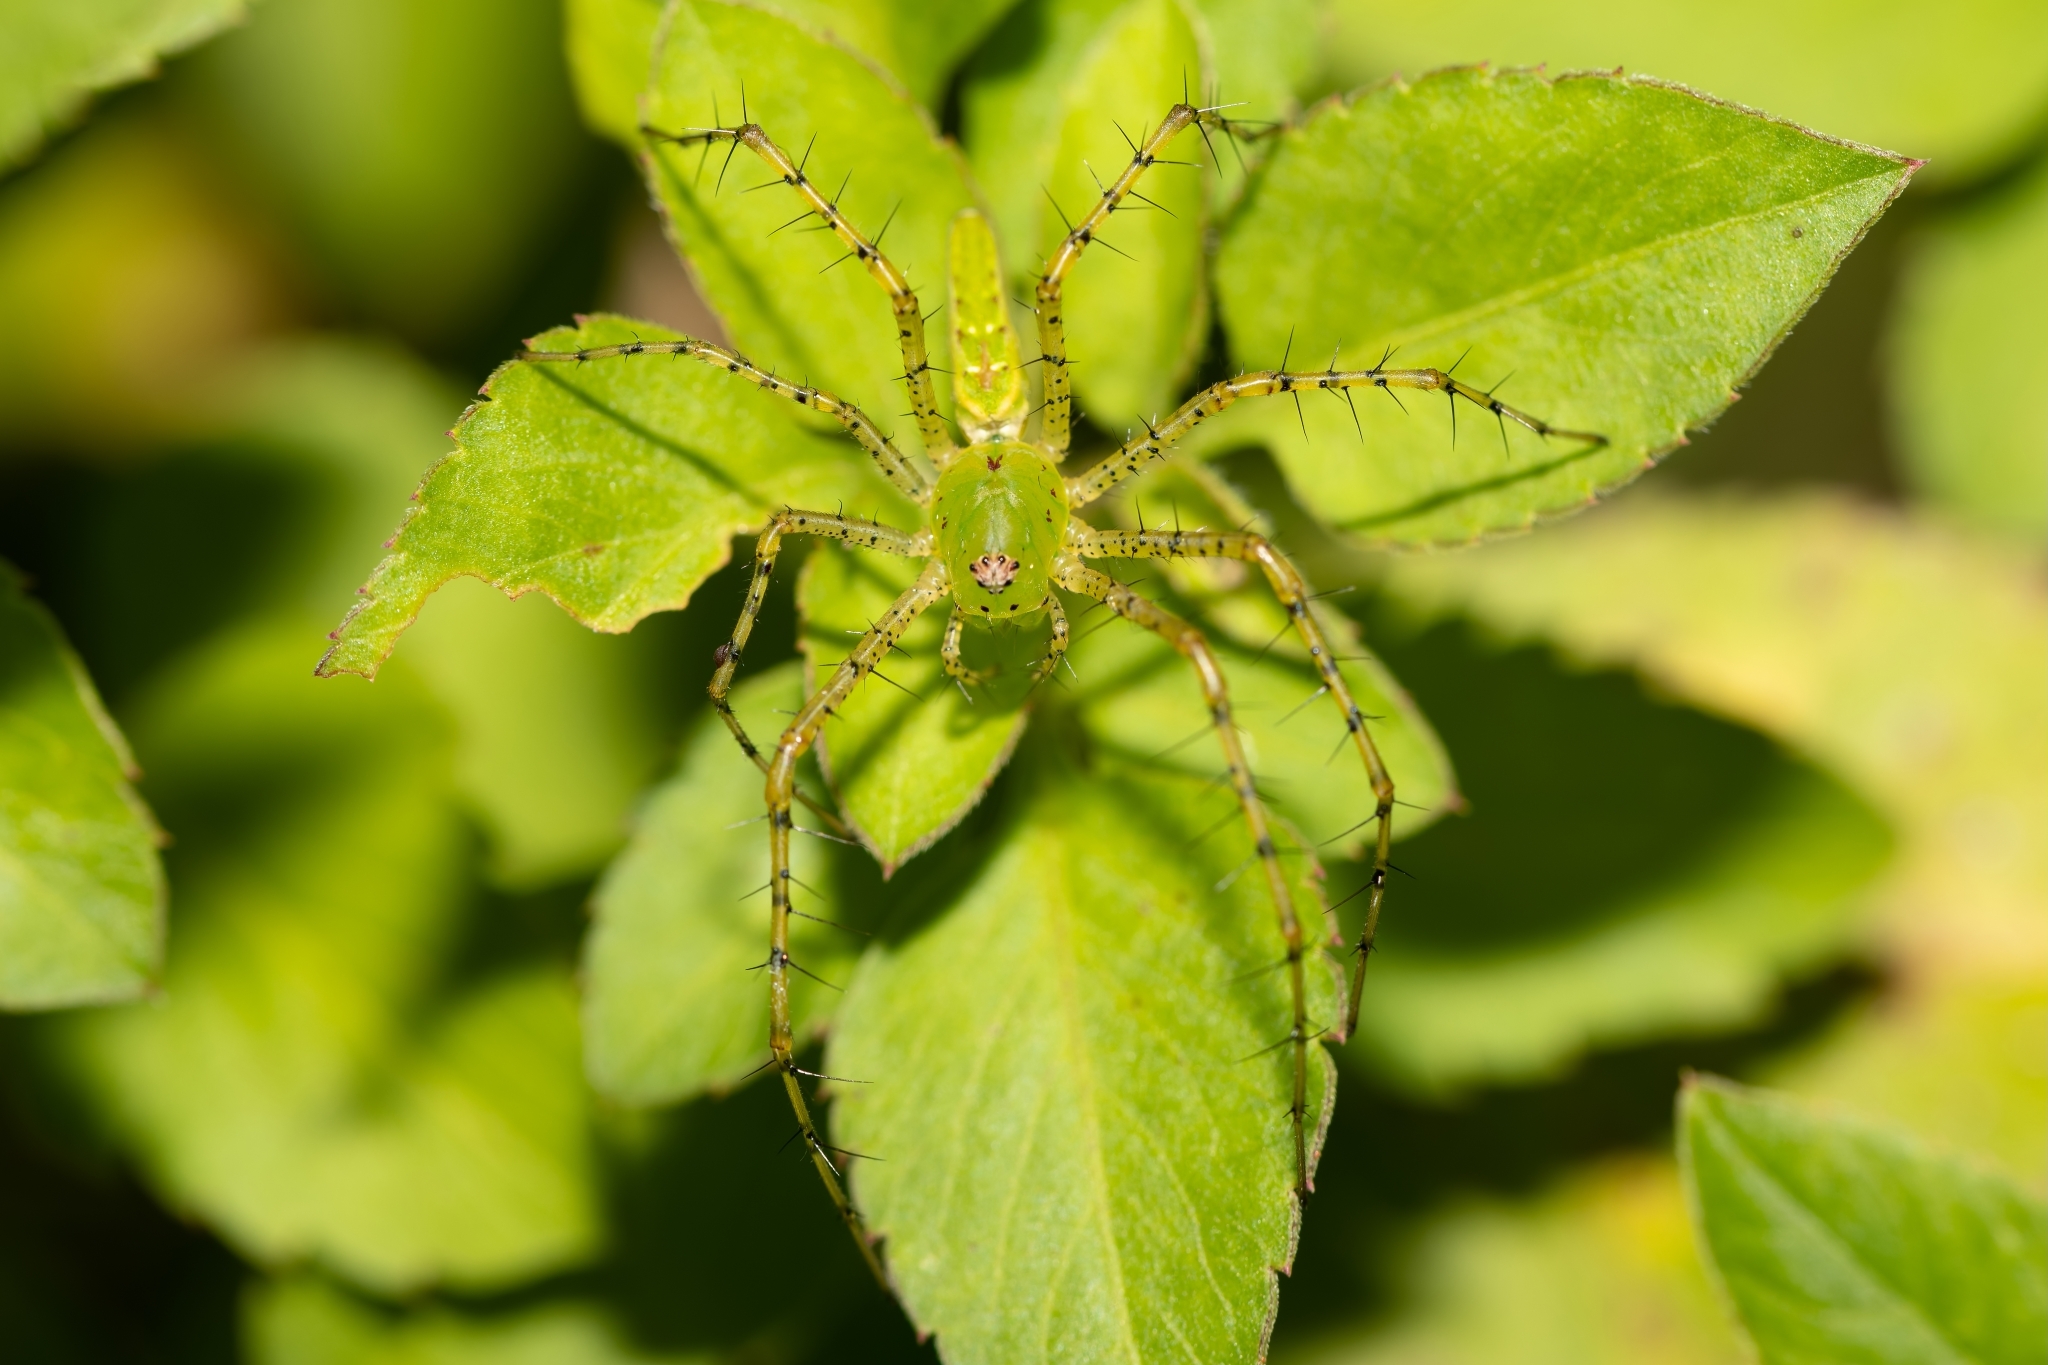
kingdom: Animalia
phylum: Arthropoda
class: Arachnida
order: Araneae
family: Oxyopidae
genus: Peucetia
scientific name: Peucetia viridans
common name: Lynx spiders
